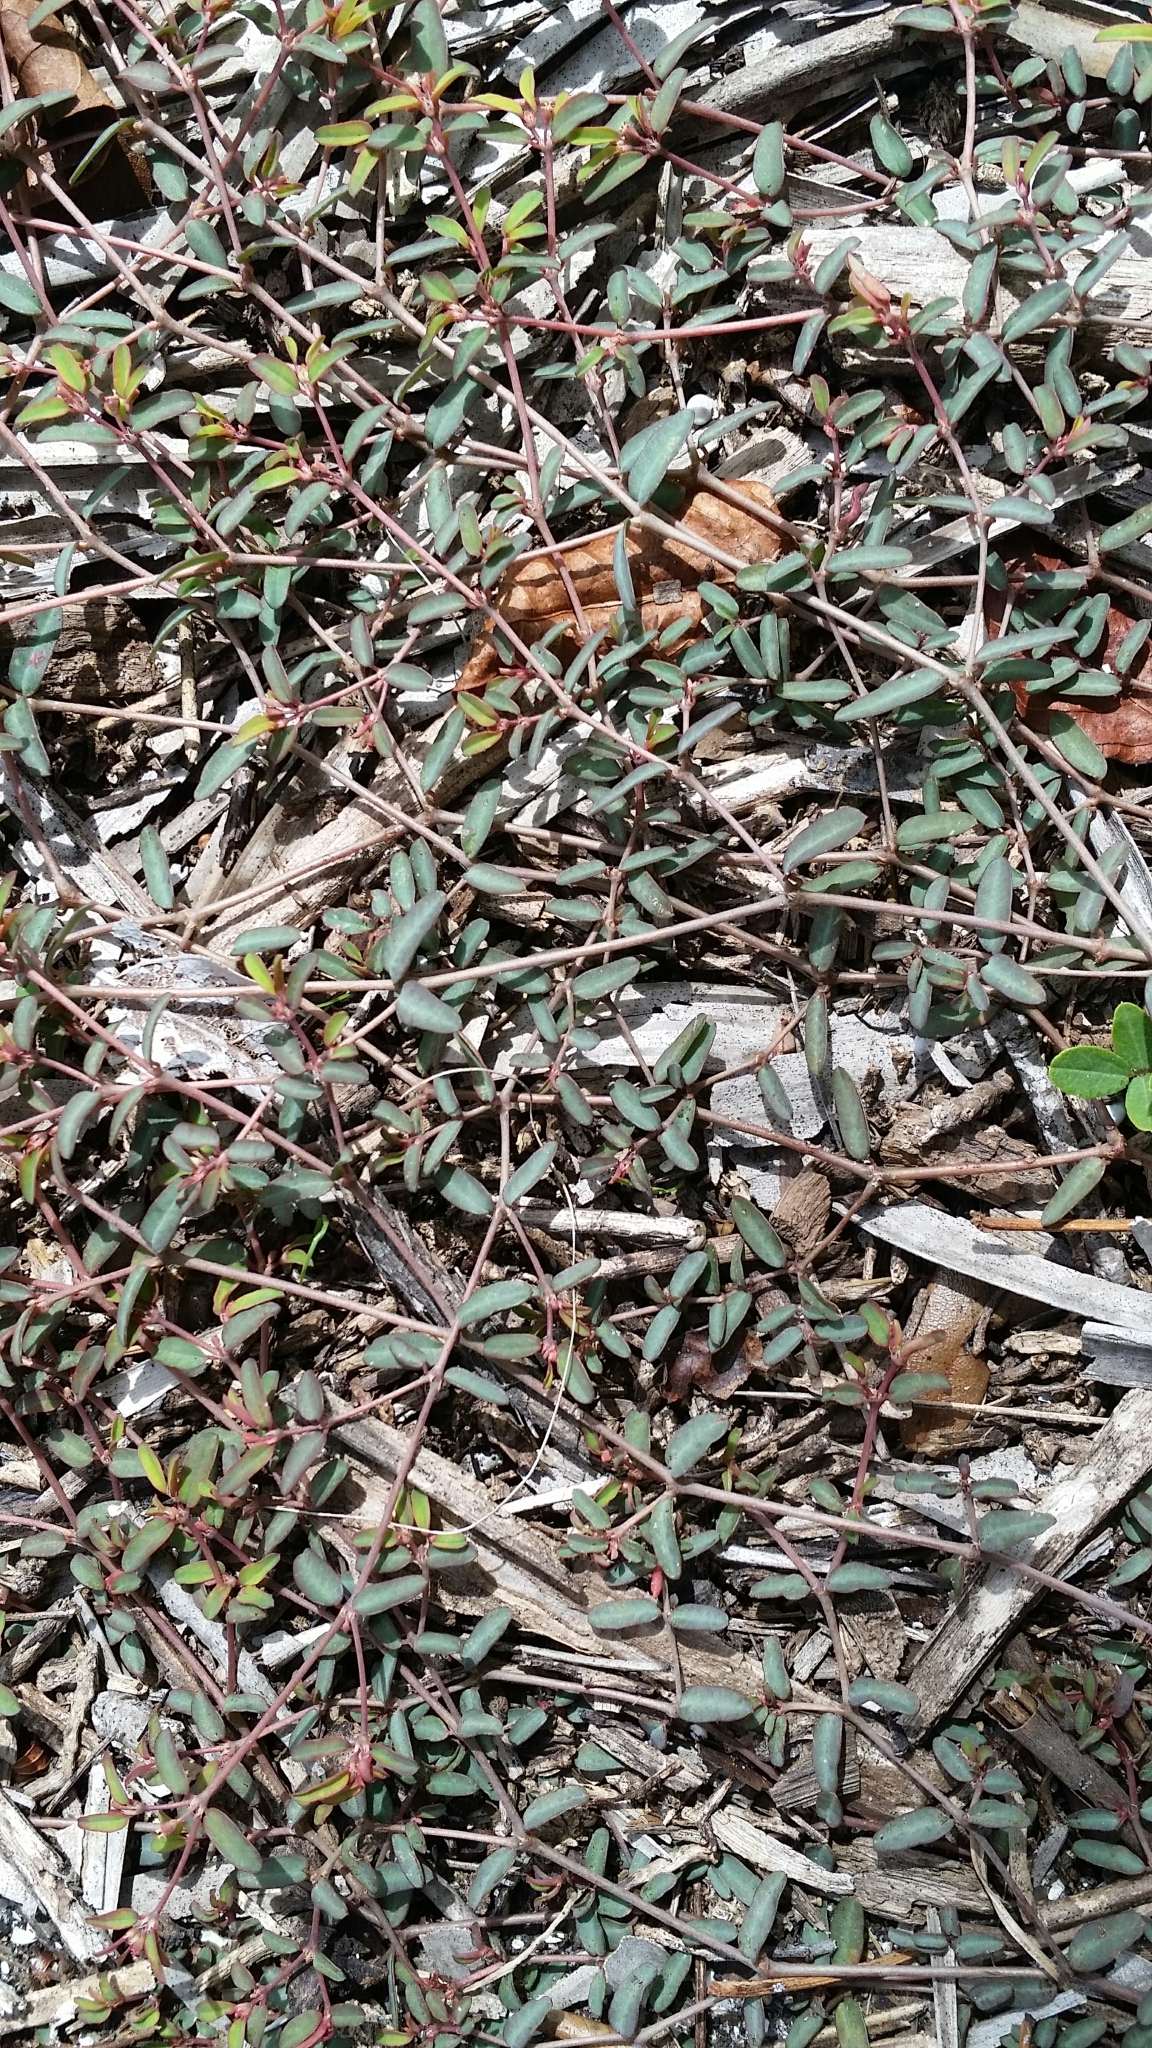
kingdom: Plantae
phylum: Tracheophyta
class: Magnoliopsida
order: Malpighiales
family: Euphorbiaceae
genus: Euphorbia
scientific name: Euphorbia cumulicola
